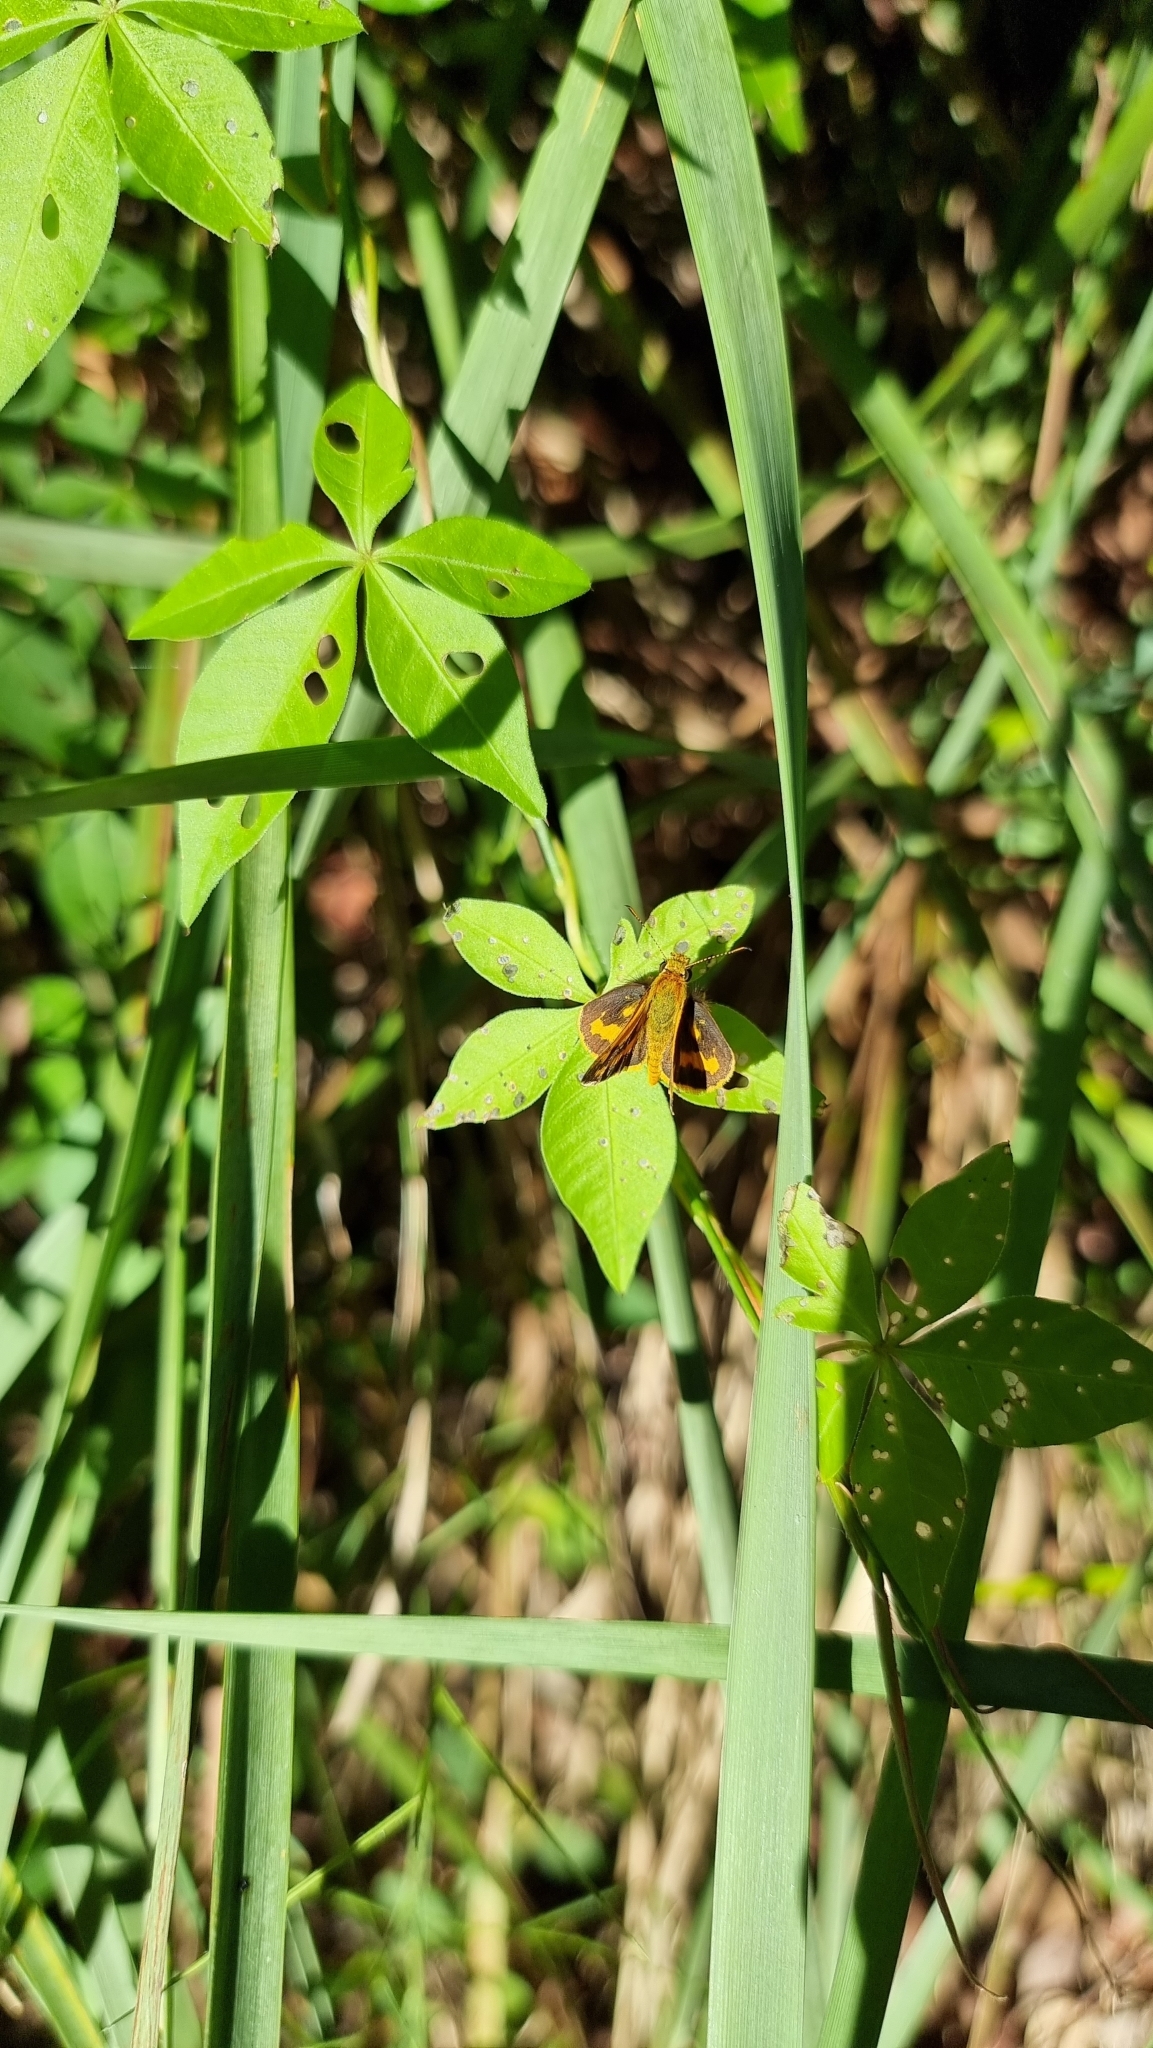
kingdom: Animalia
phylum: Arthropoda
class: Insecta
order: Lepidoptera
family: Hesperiidae
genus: Ocybadistes
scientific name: Ocybadistes walkeri
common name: Yellow-banded dart
